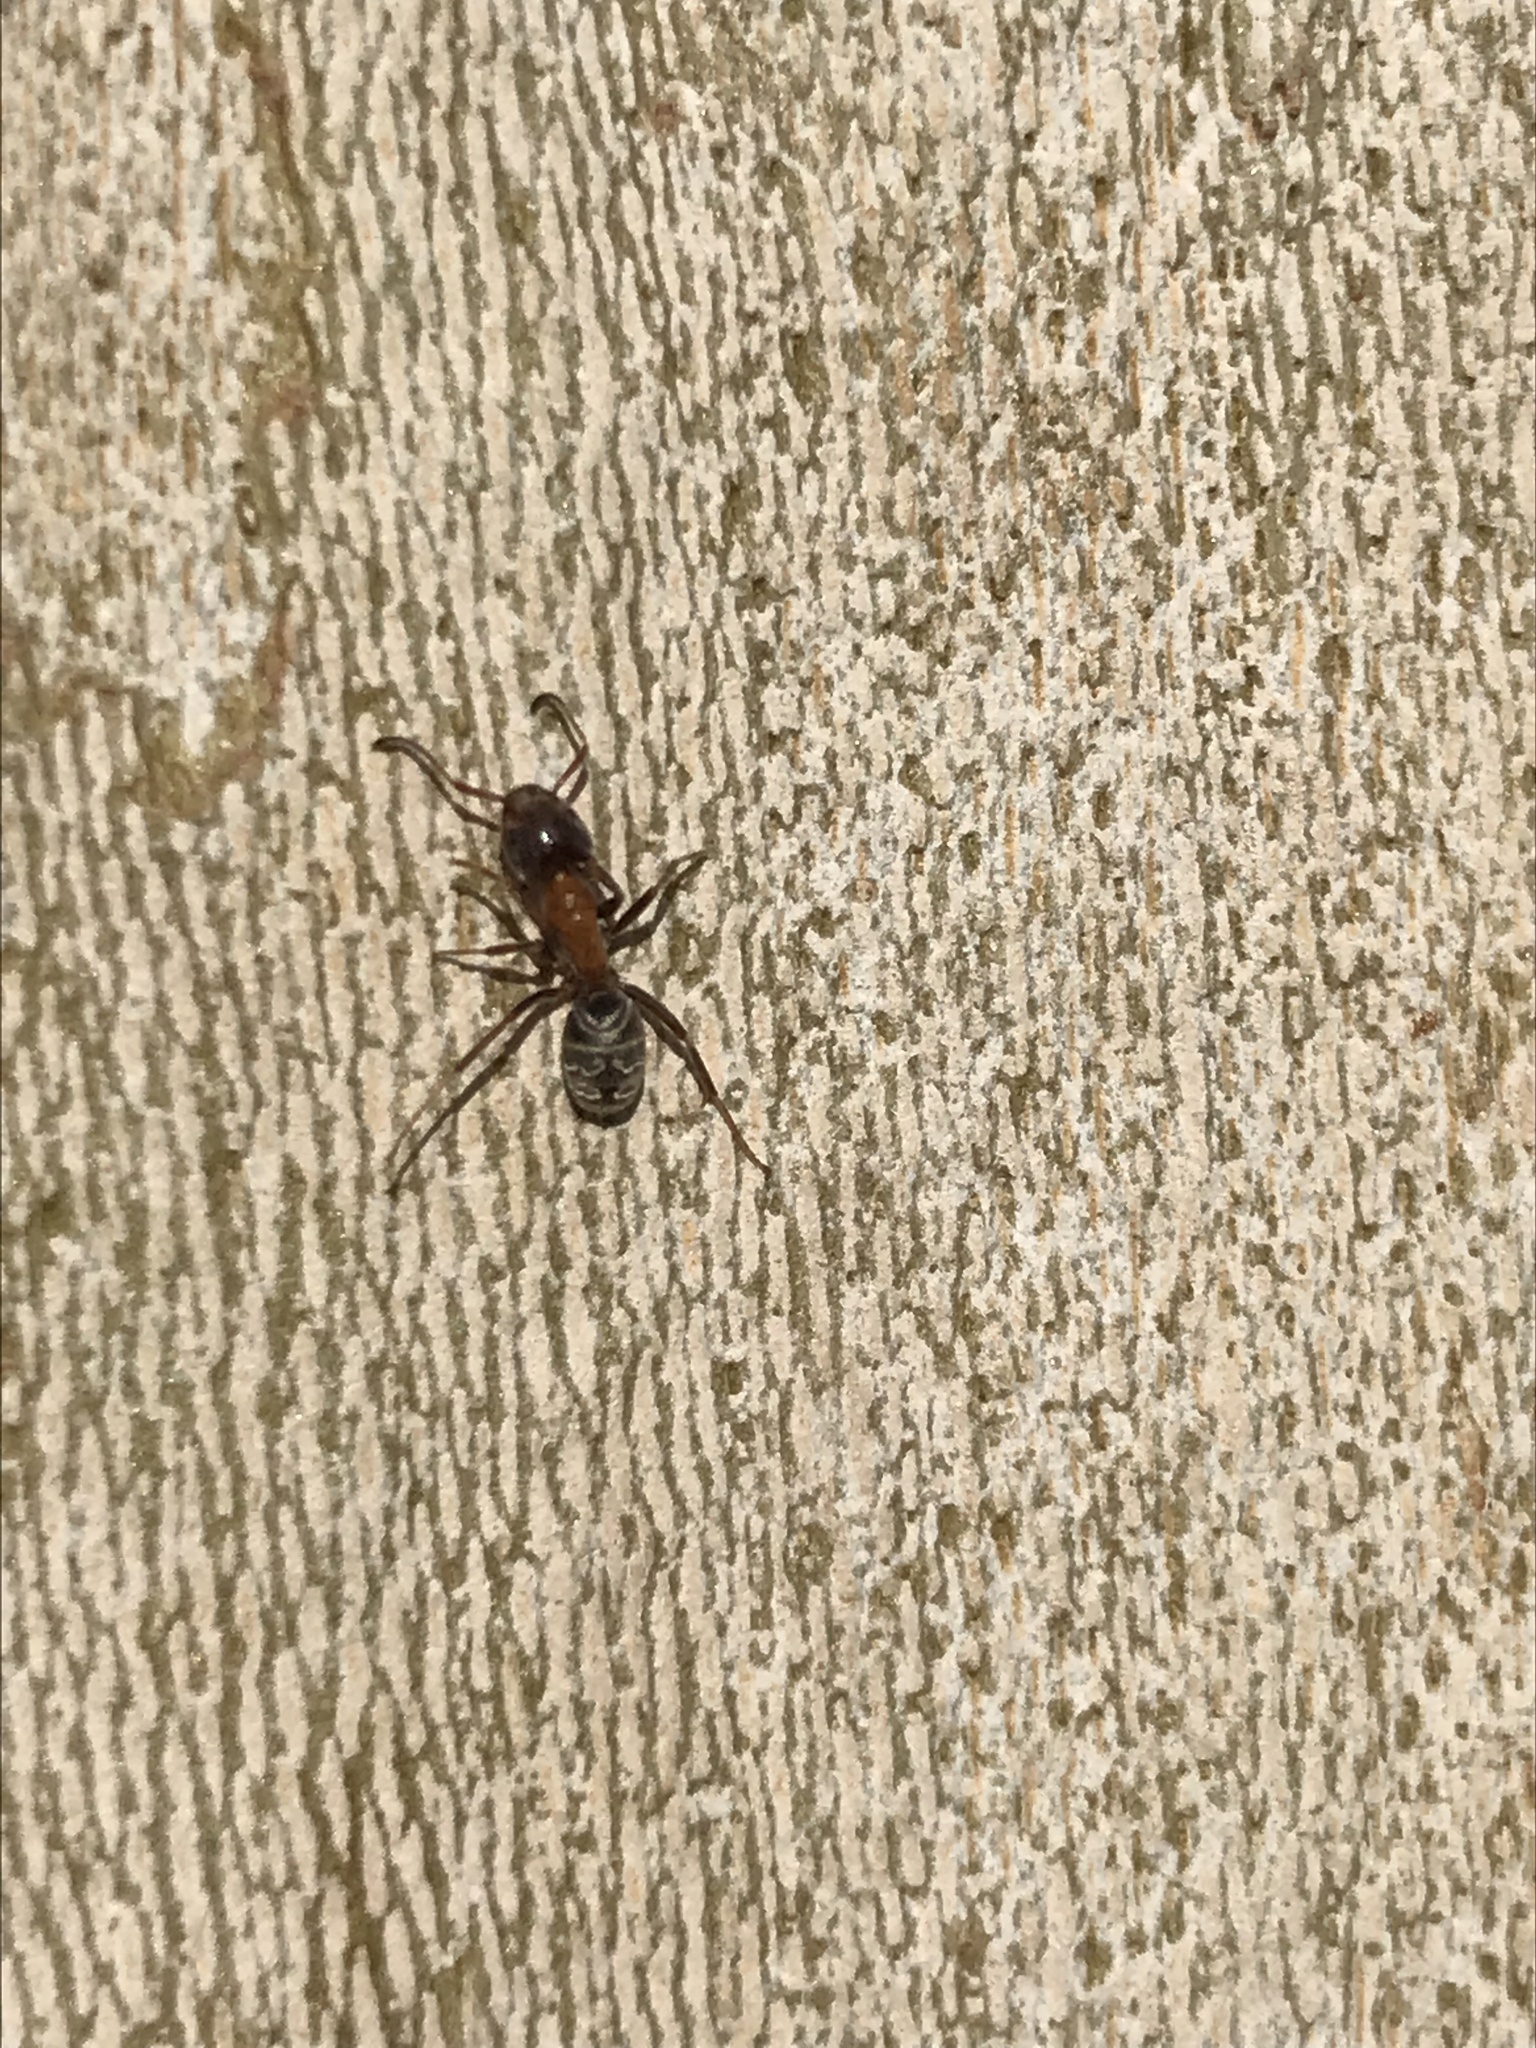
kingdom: Animalia
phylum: Arthropoda
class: Insecta
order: Hymenoptera
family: Formicidae
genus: Liometopum
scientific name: Liometopum microcephalum
